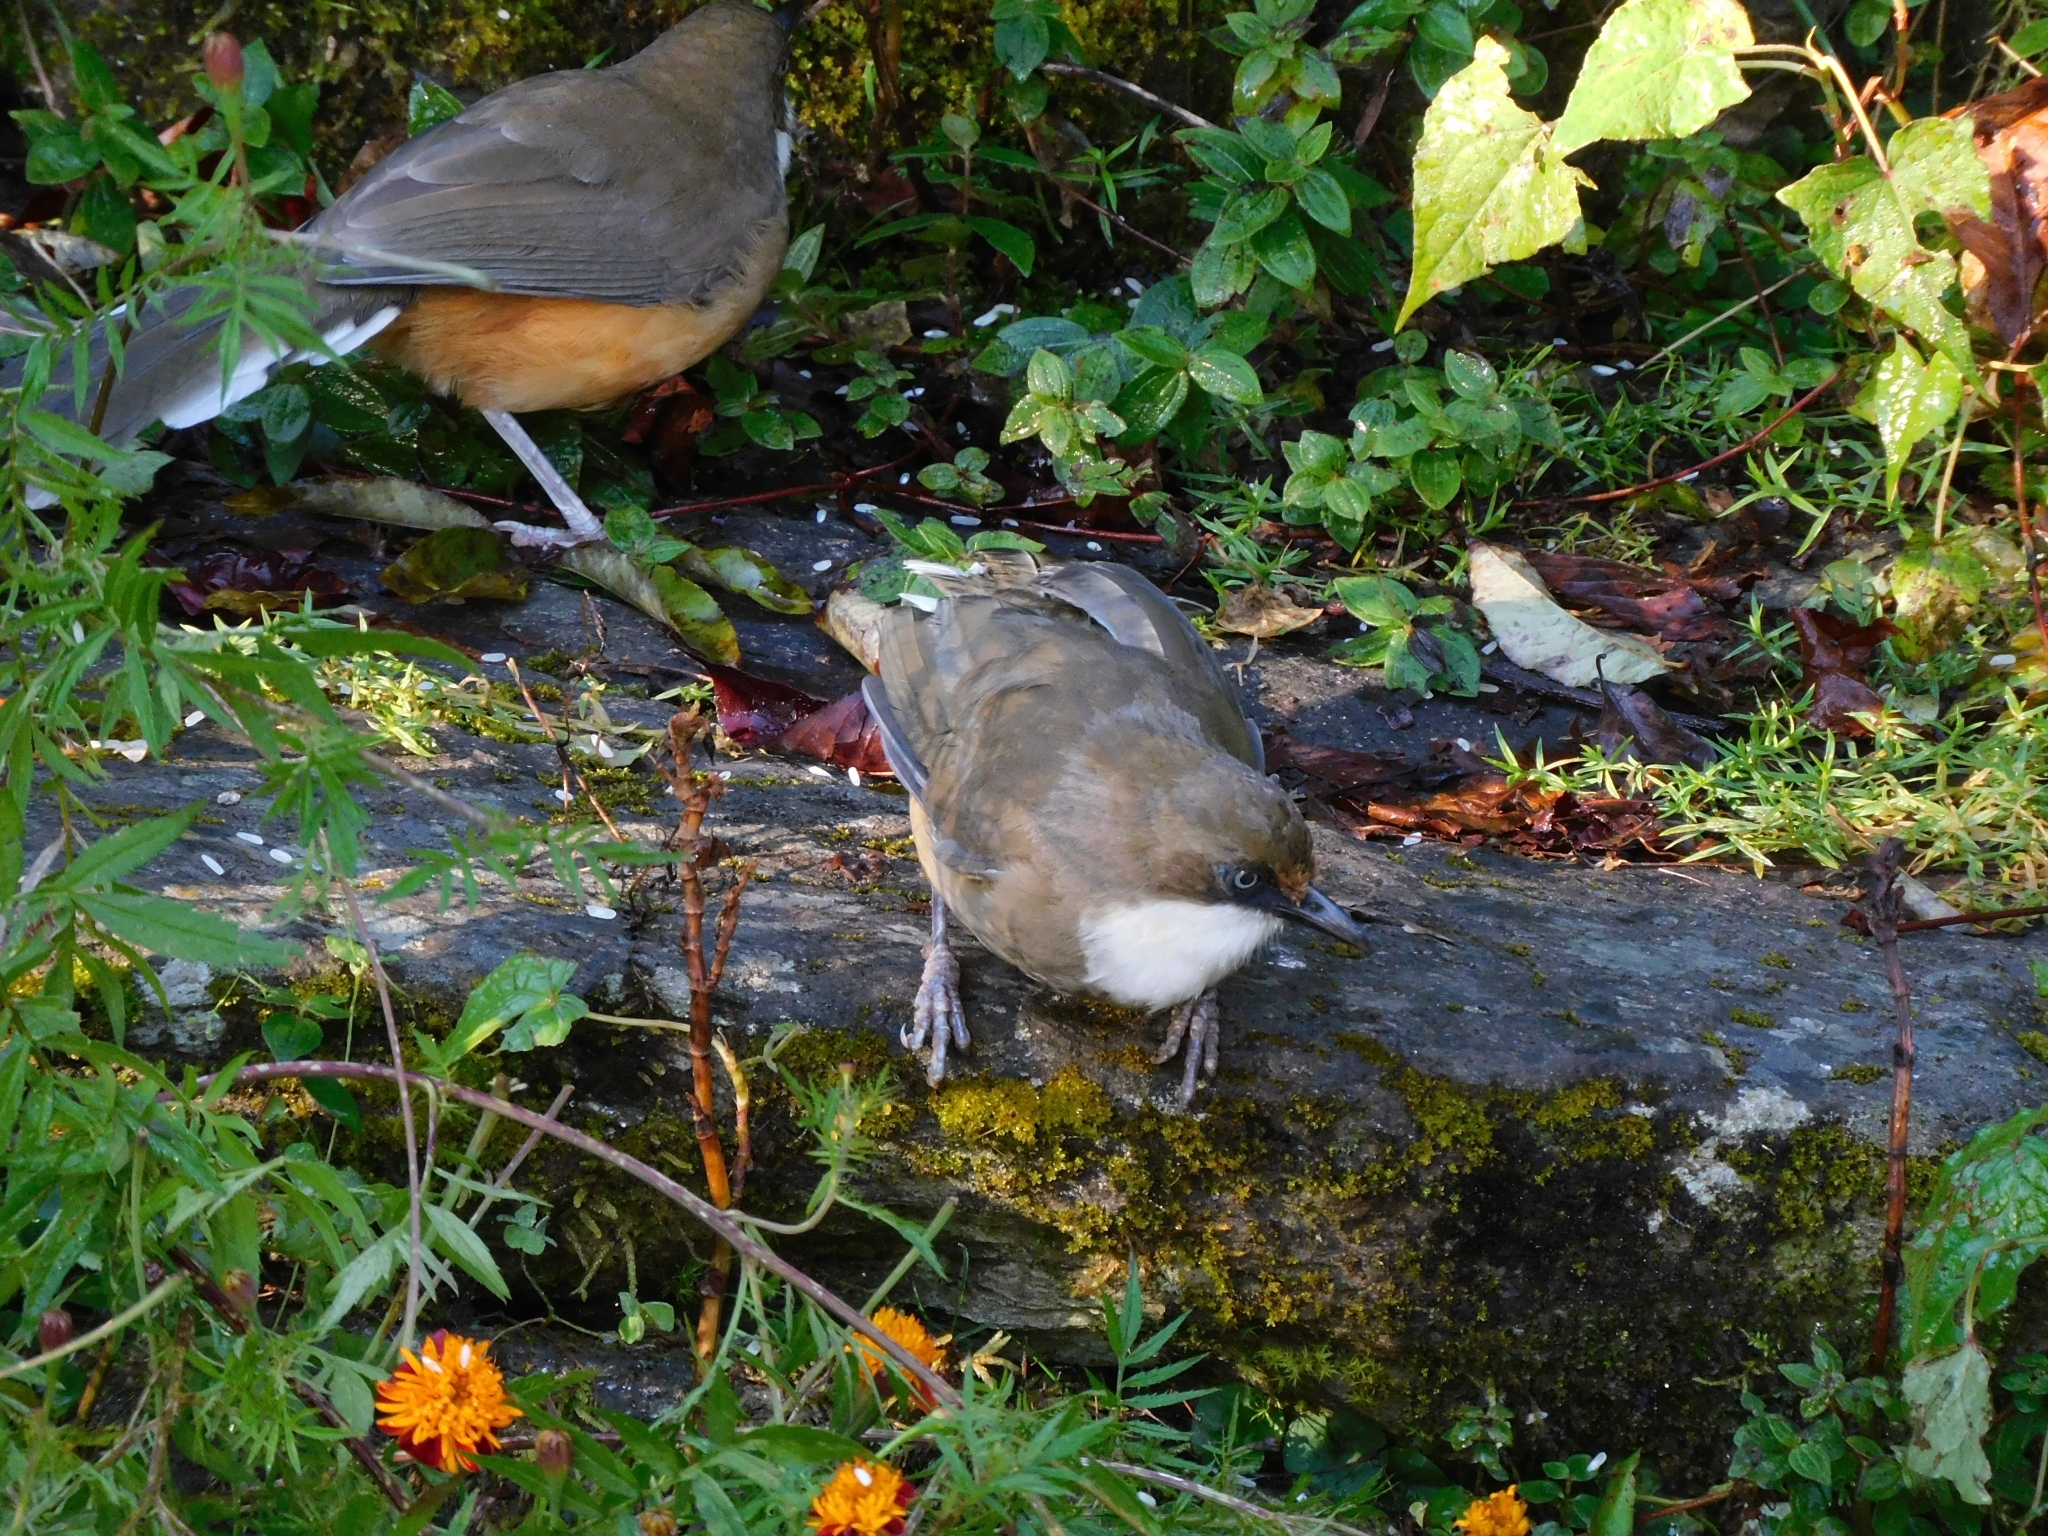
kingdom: Animalia
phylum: Chordata
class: Aves
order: Passeriformes
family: Leiothrichidae
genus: Garrulax
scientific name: Garrulax albogularis
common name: White-throated laughingthrush
